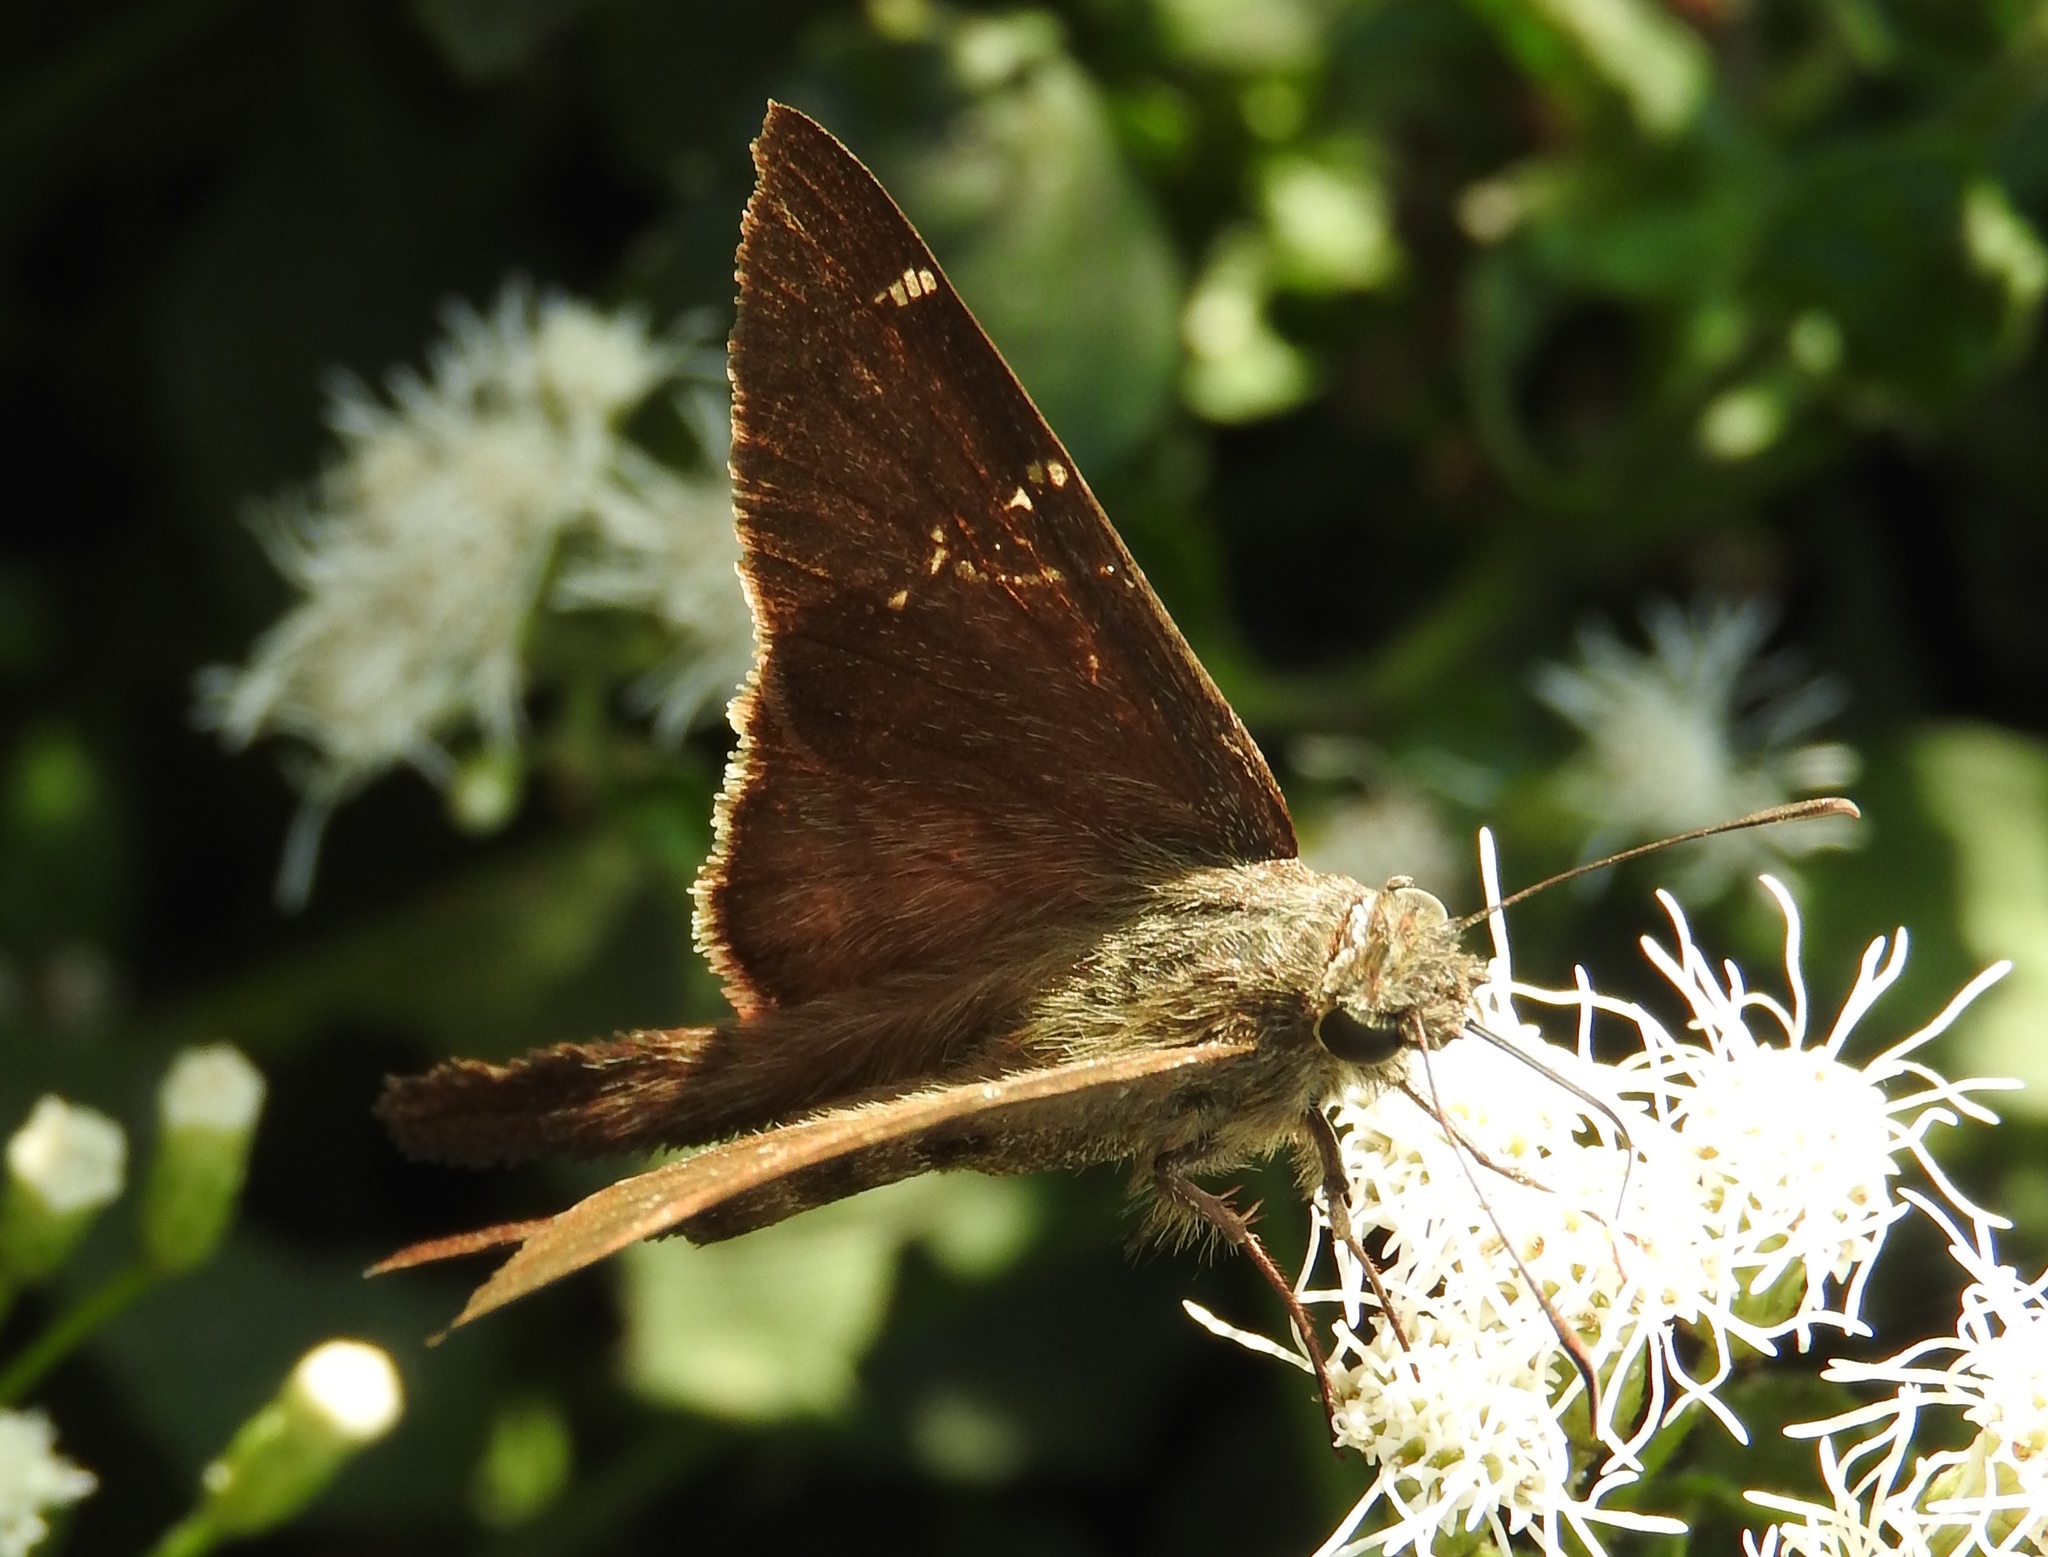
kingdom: Animalia
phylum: Arthropoda
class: Insecta
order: Lepidoptera
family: Hesperiidae
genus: Urbanus
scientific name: Urbanus simplicius
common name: Plain longtail
